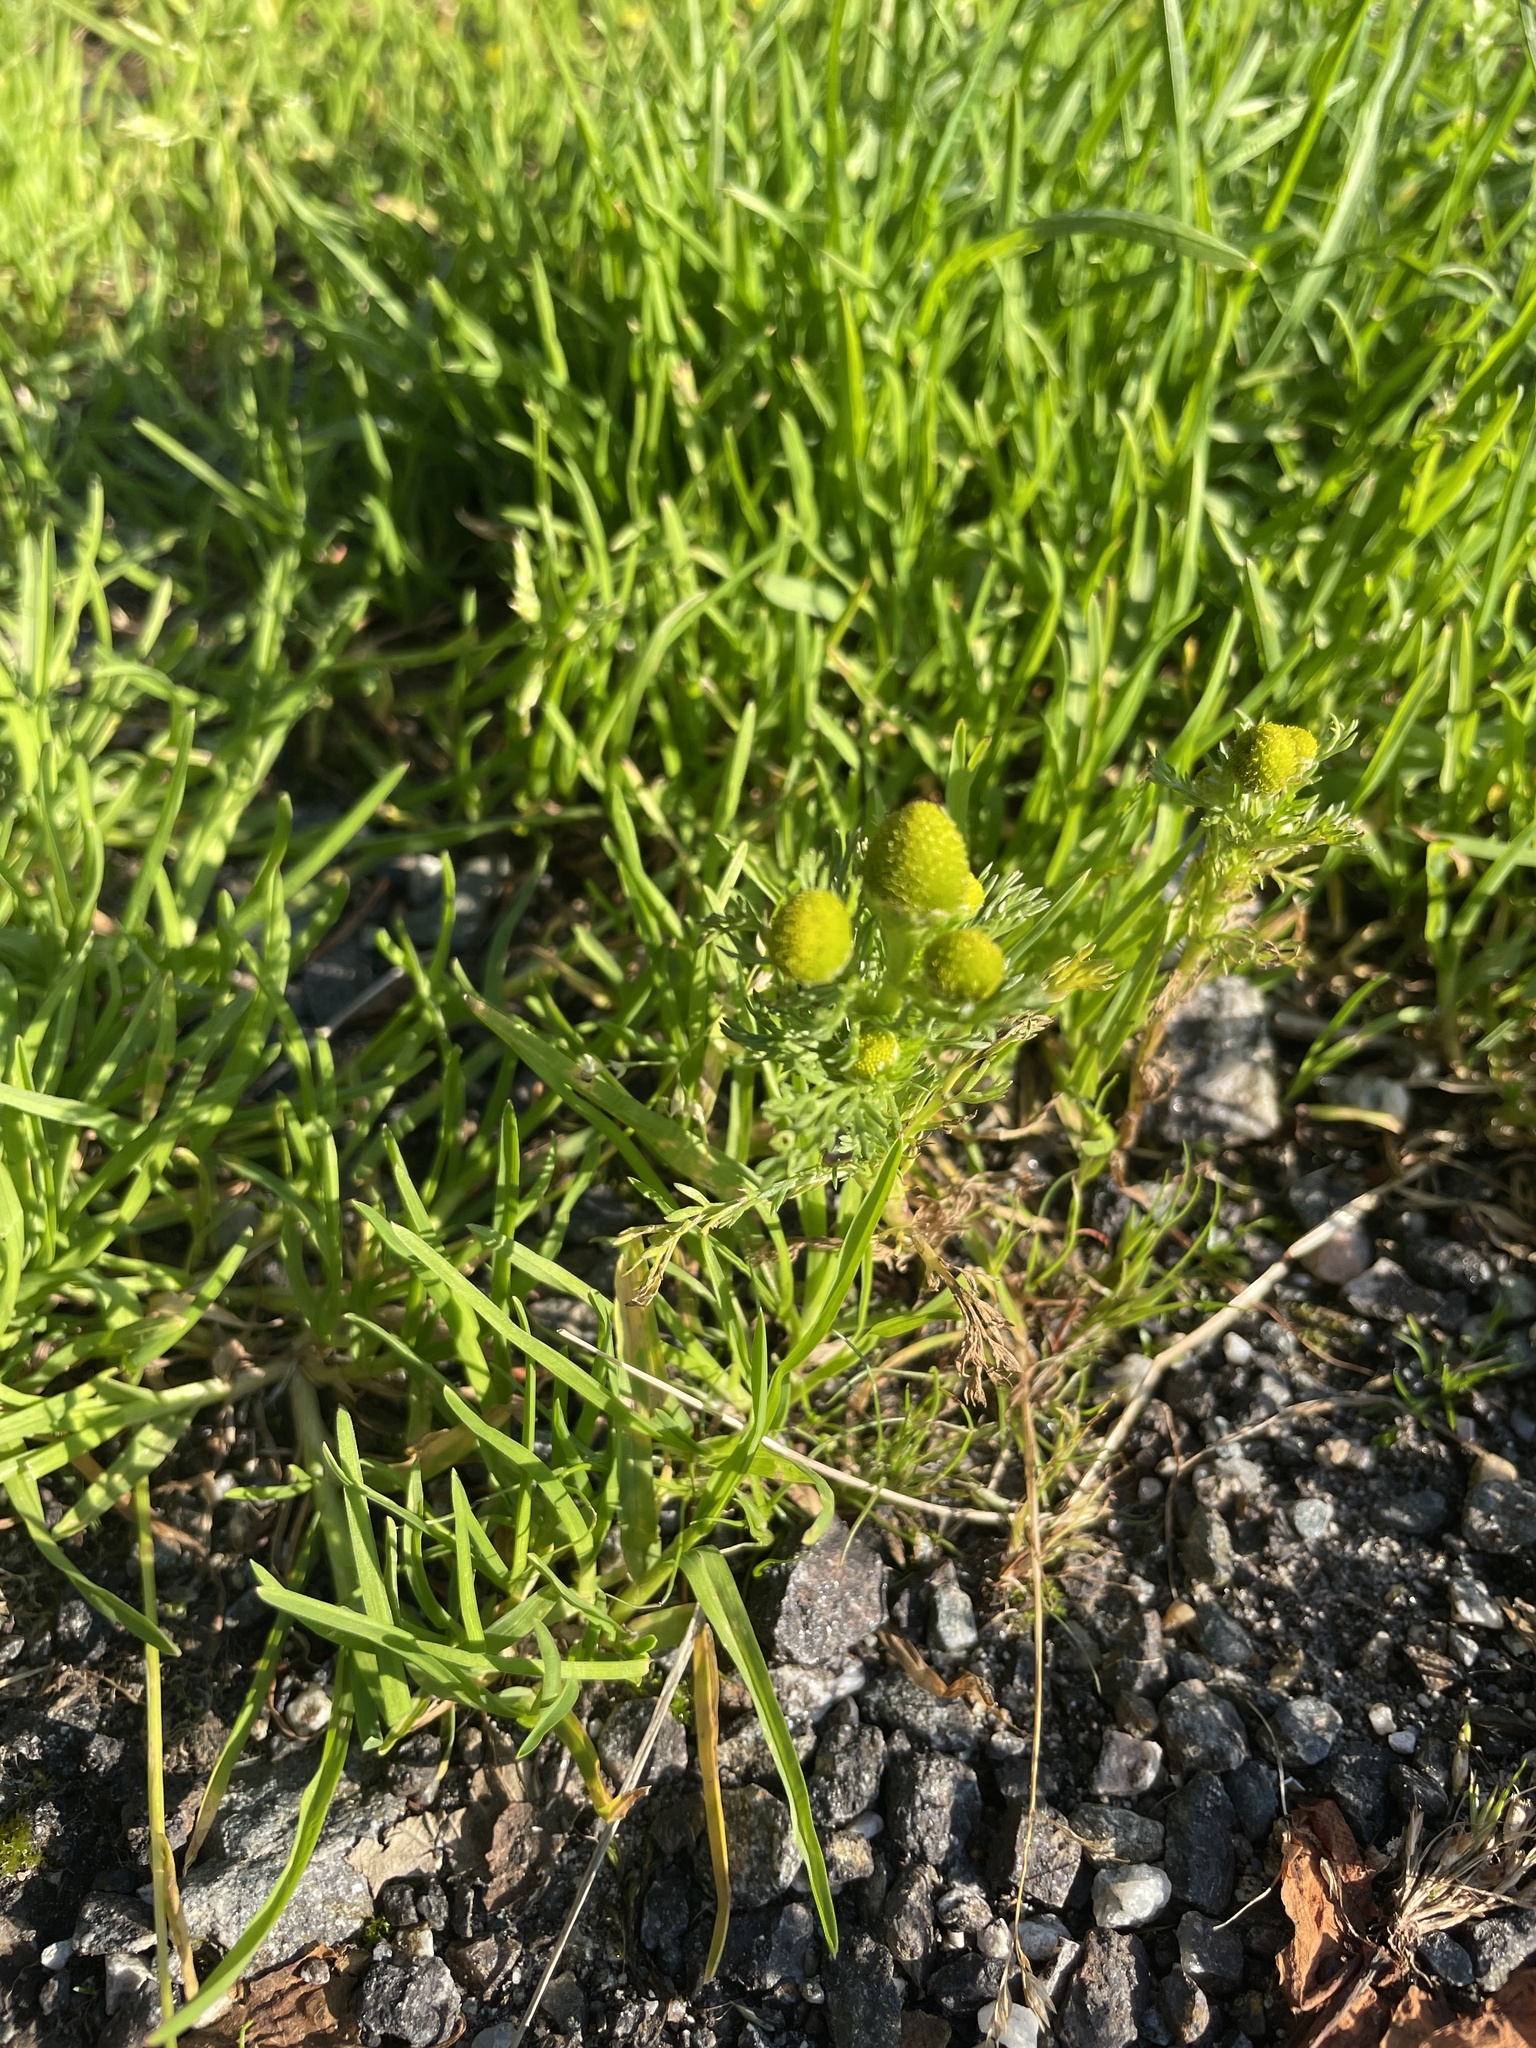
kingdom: Plantae
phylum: Tracheophyta
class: Magnoliopsida
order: Asterales
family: Asteraceae
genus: Matricaria
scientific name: Matricaria discoidea
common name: Disc mayweed
